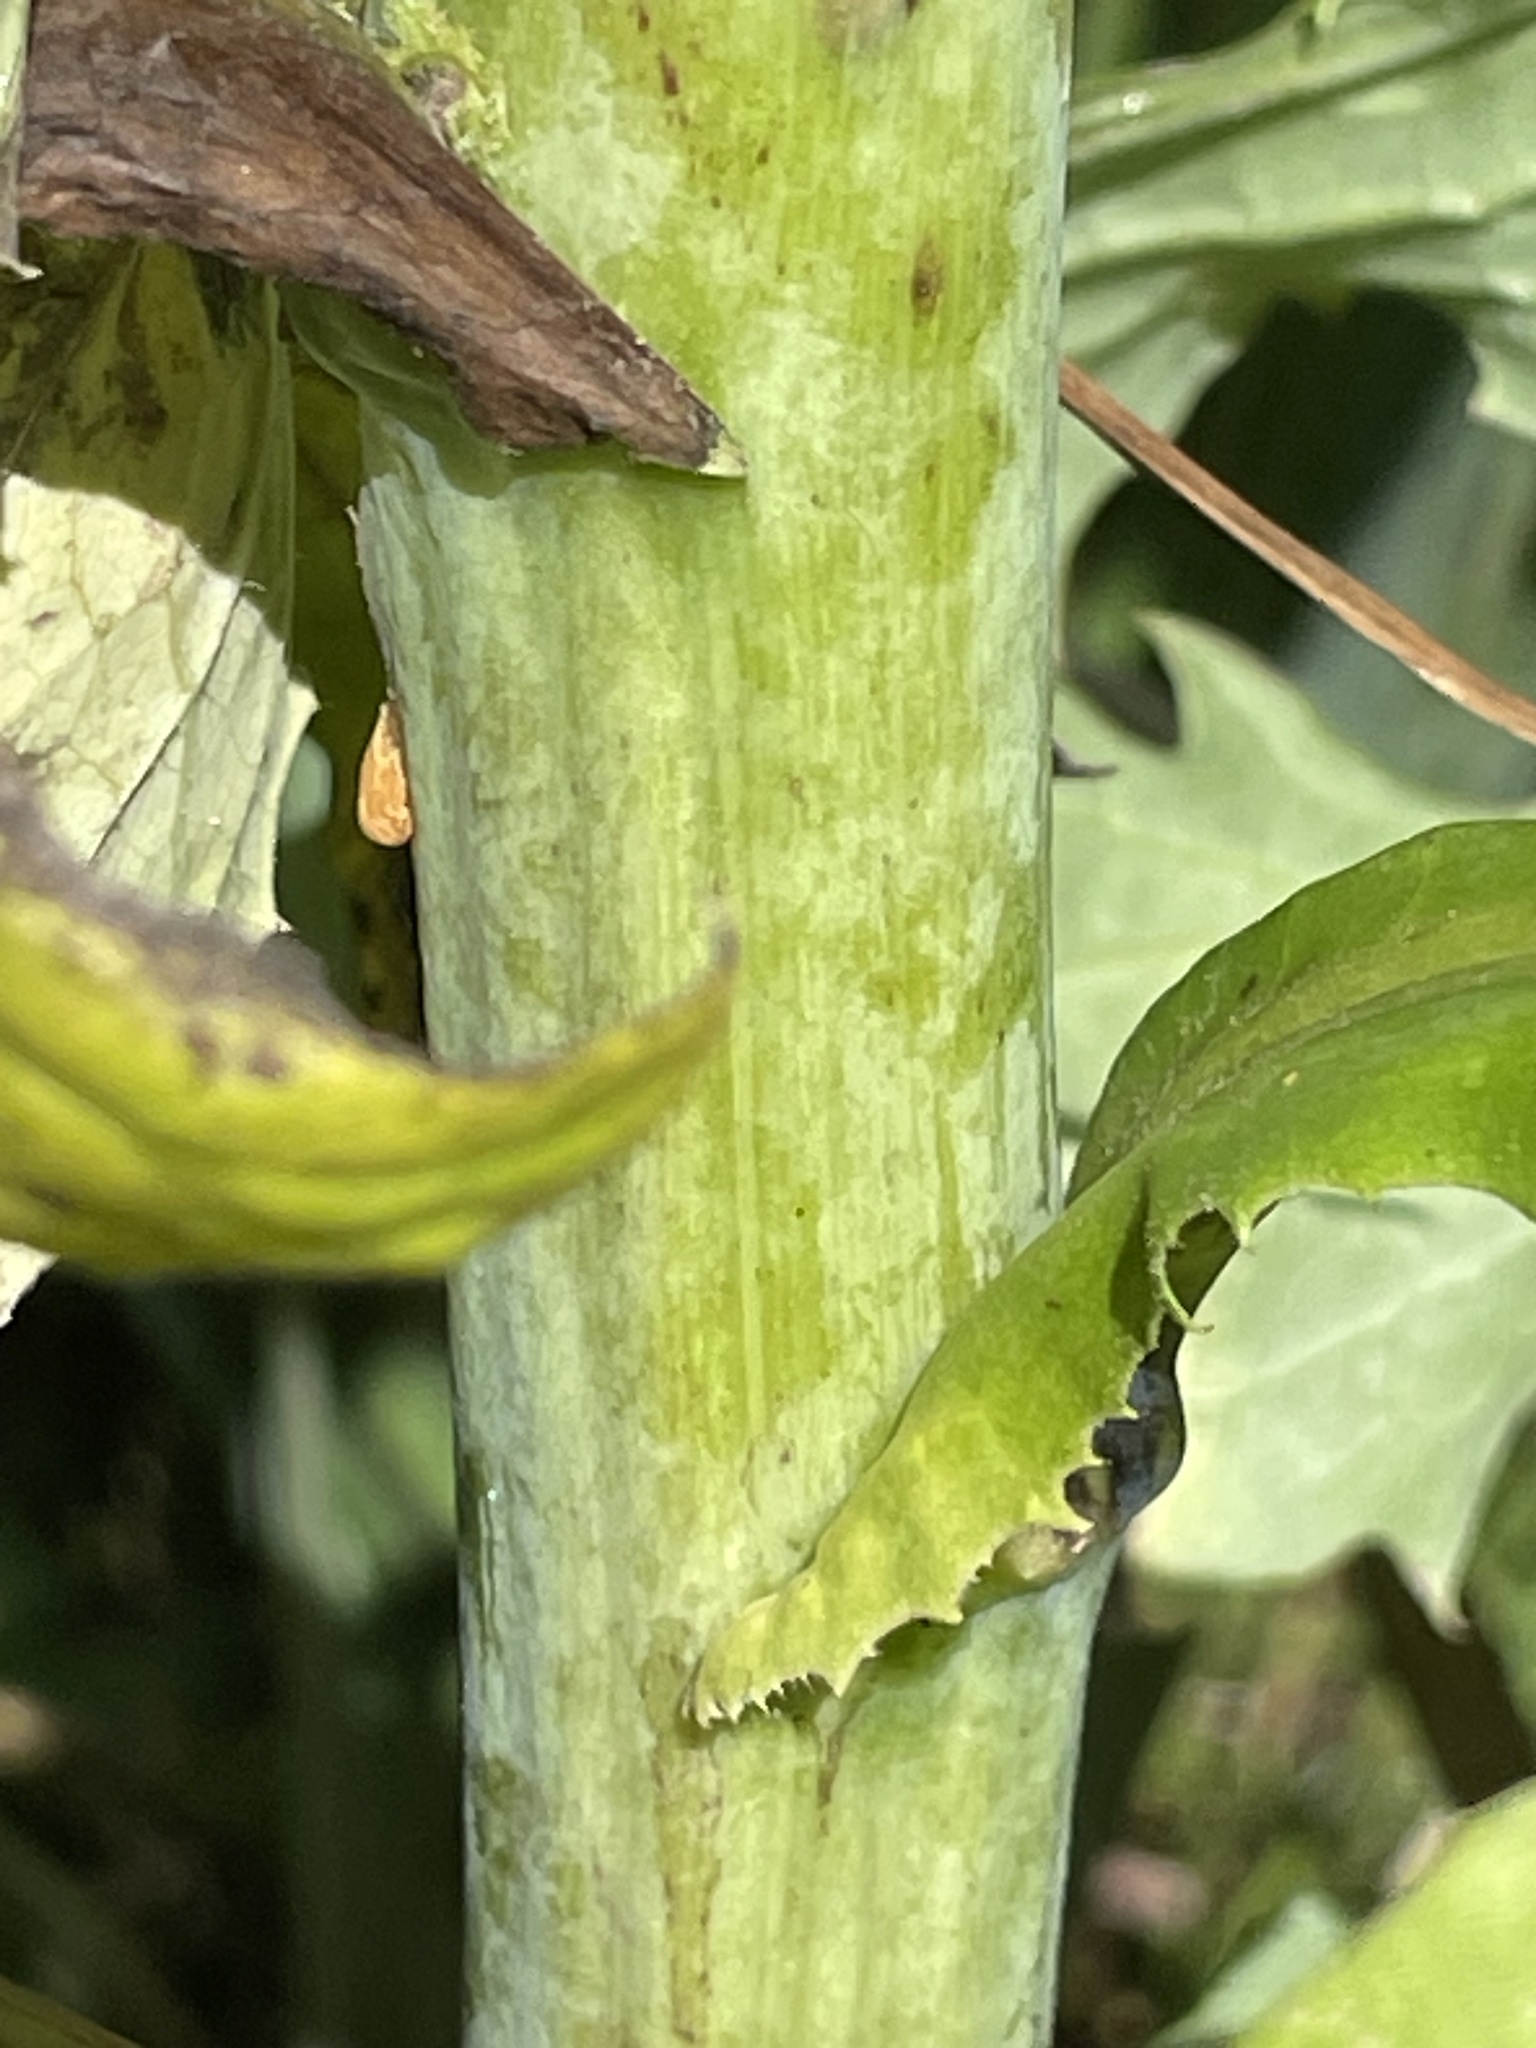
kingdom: Plantae
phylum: Tracheophyta
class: Magnoliopsida
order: Asterales
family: Asteraceae
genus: Lactuca
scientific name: Lactuca biennis
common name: Blue wood lettuce
